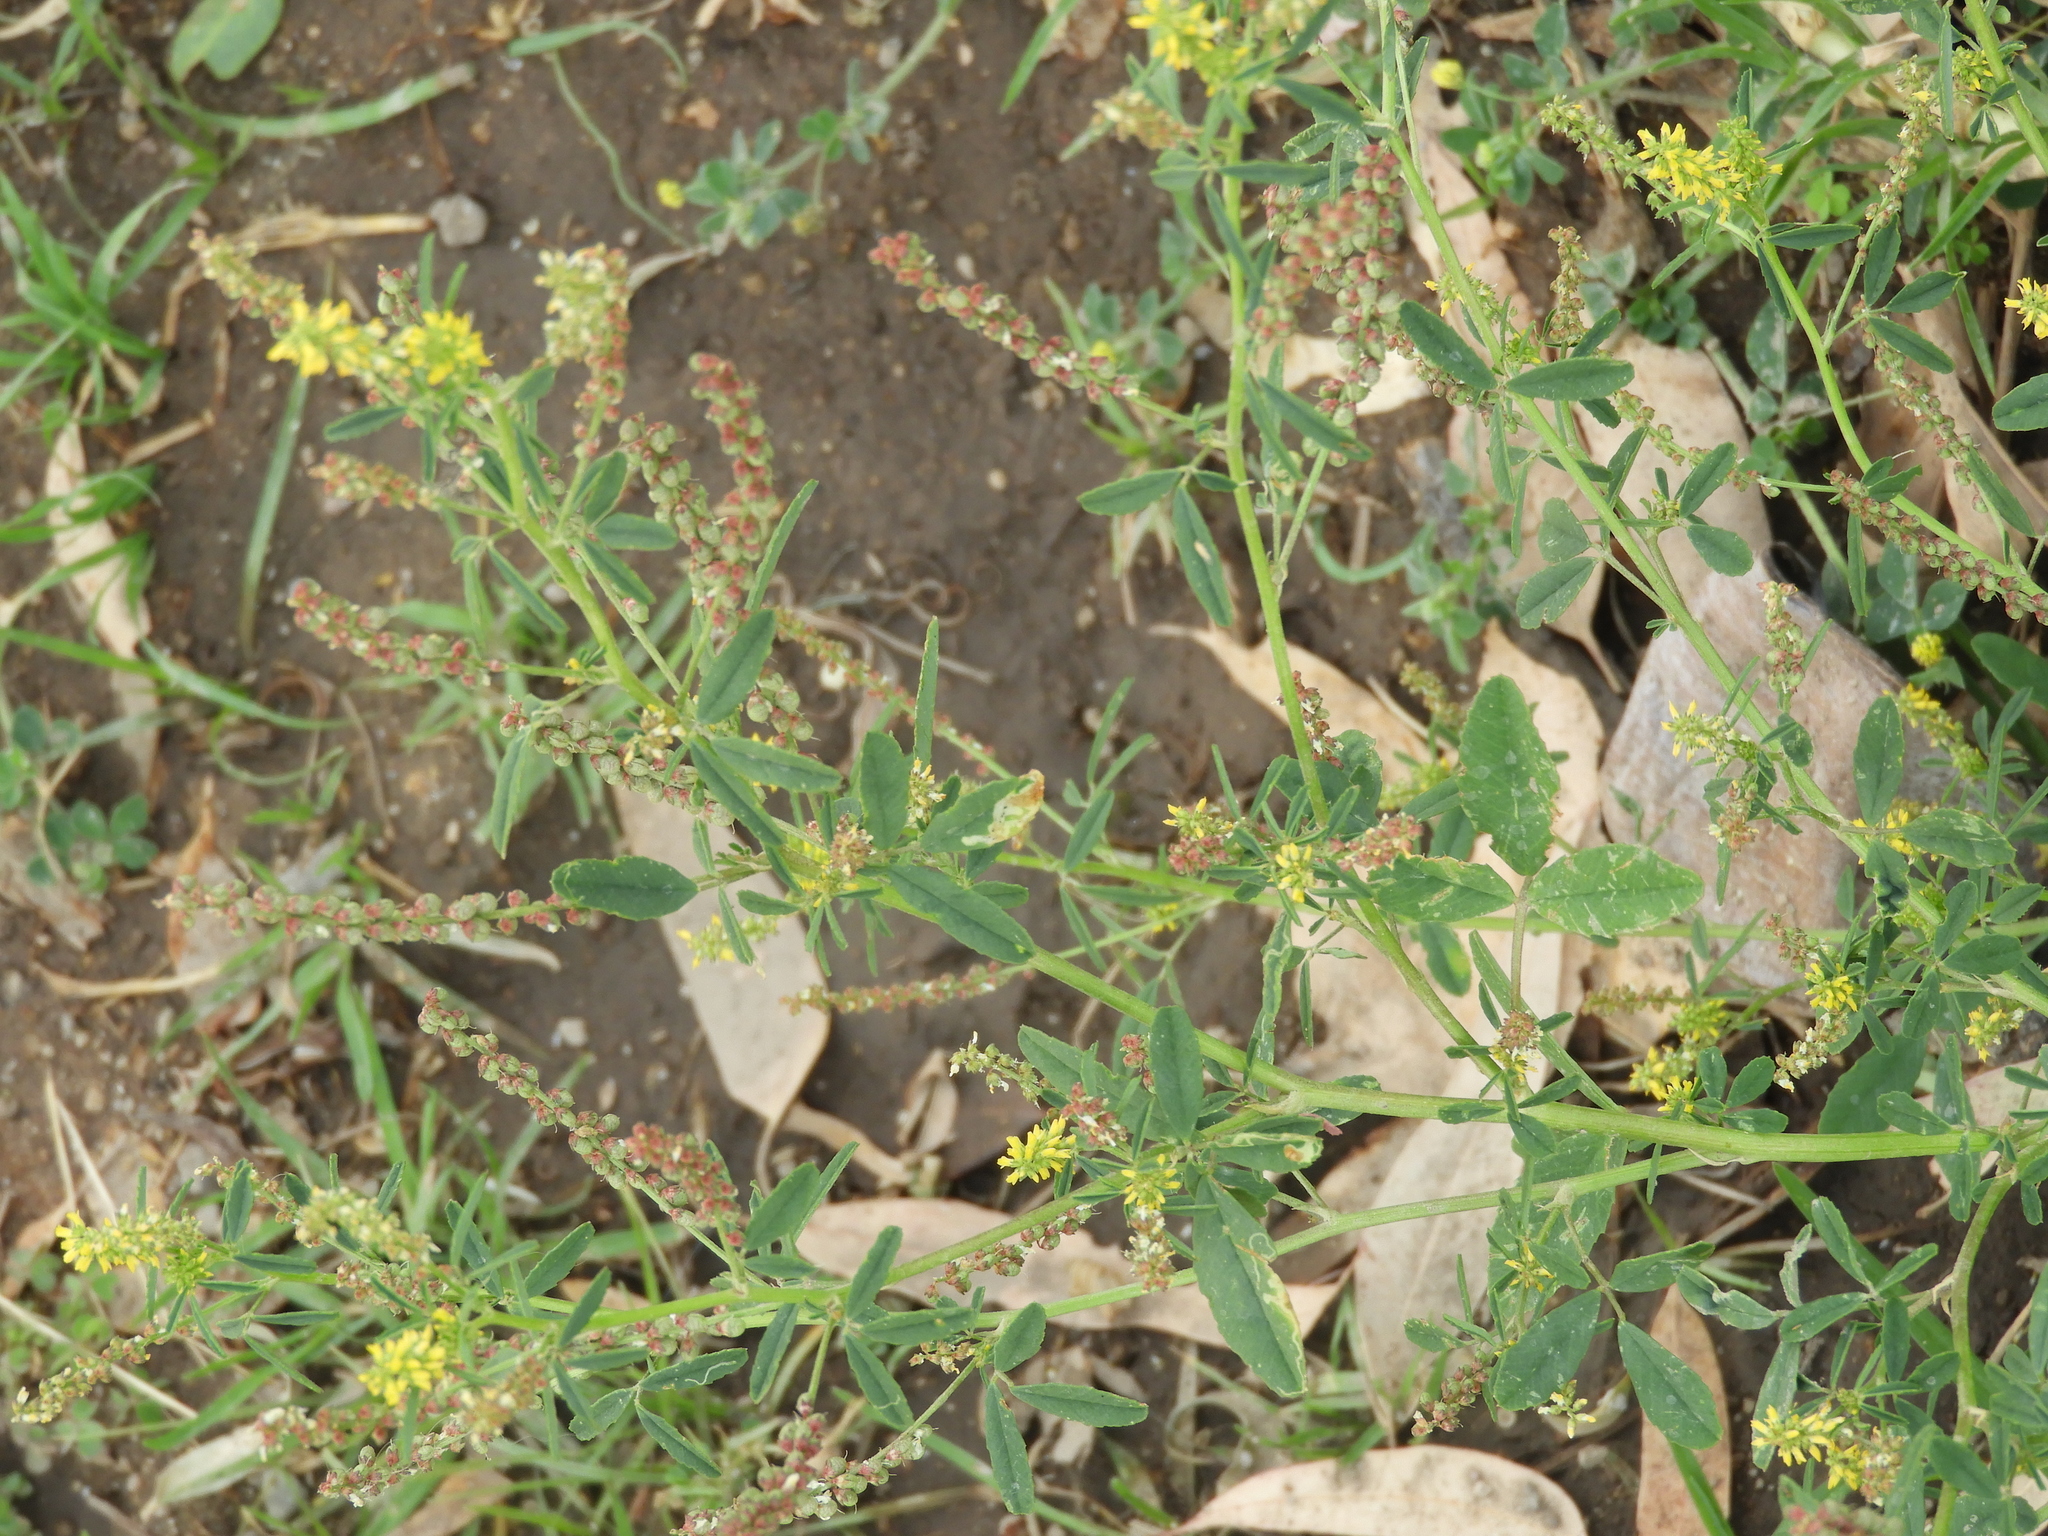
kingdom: Plantae
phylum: Tracheophyta
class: Magnoliopsida
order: Fabales
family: Fabaceae
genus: Melilotus
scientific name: Melilotus indicus
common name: Small melilot
